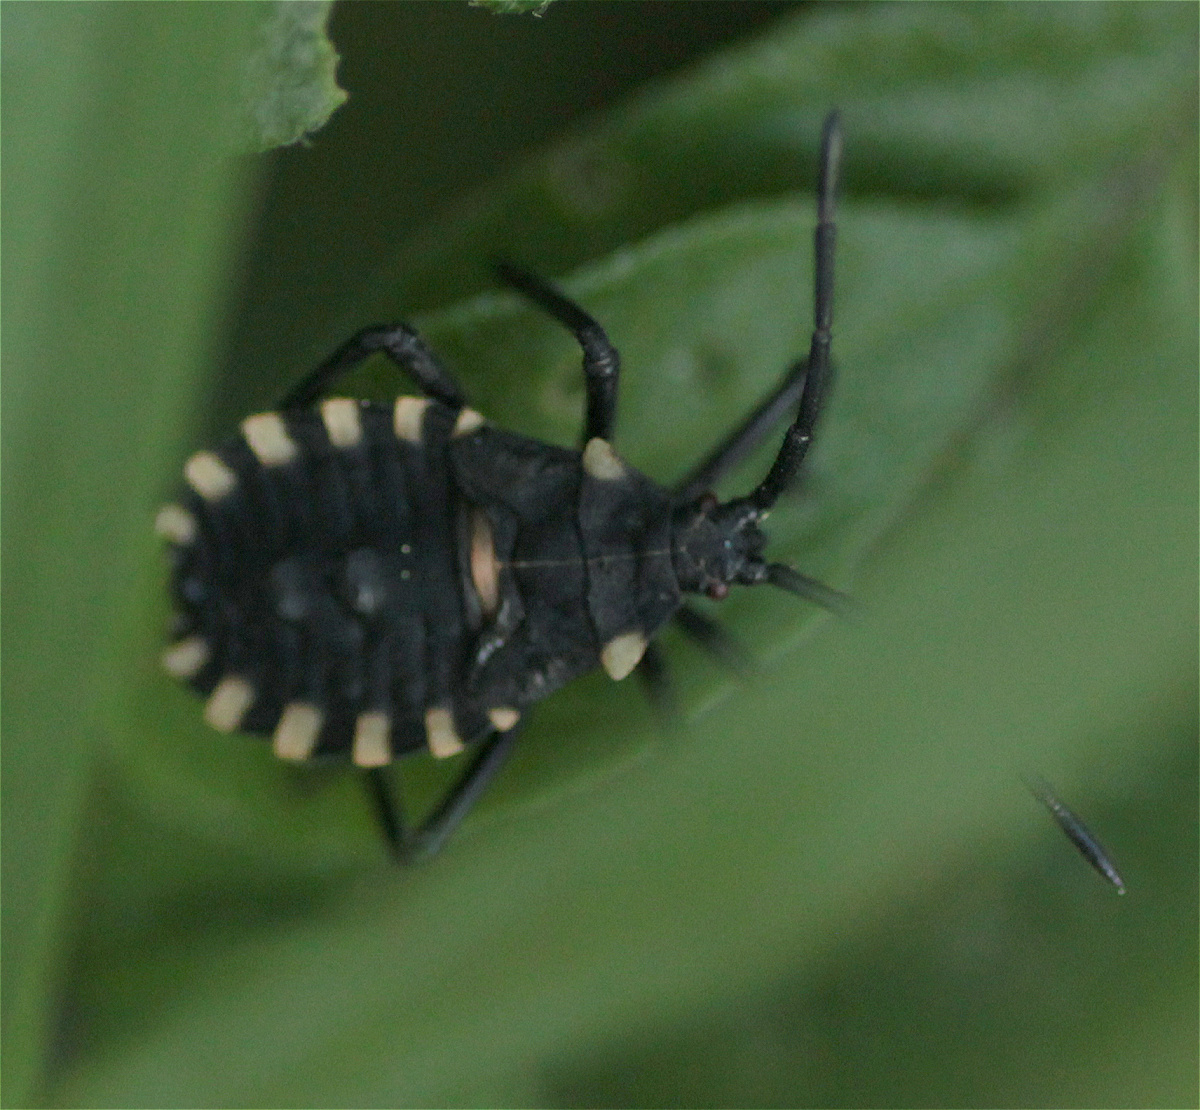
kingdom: Animalia
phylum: Arthropoda
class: Insecta
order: Hemiptera
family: Coreidae
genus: Spartocera
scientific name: Spartocera alternata
